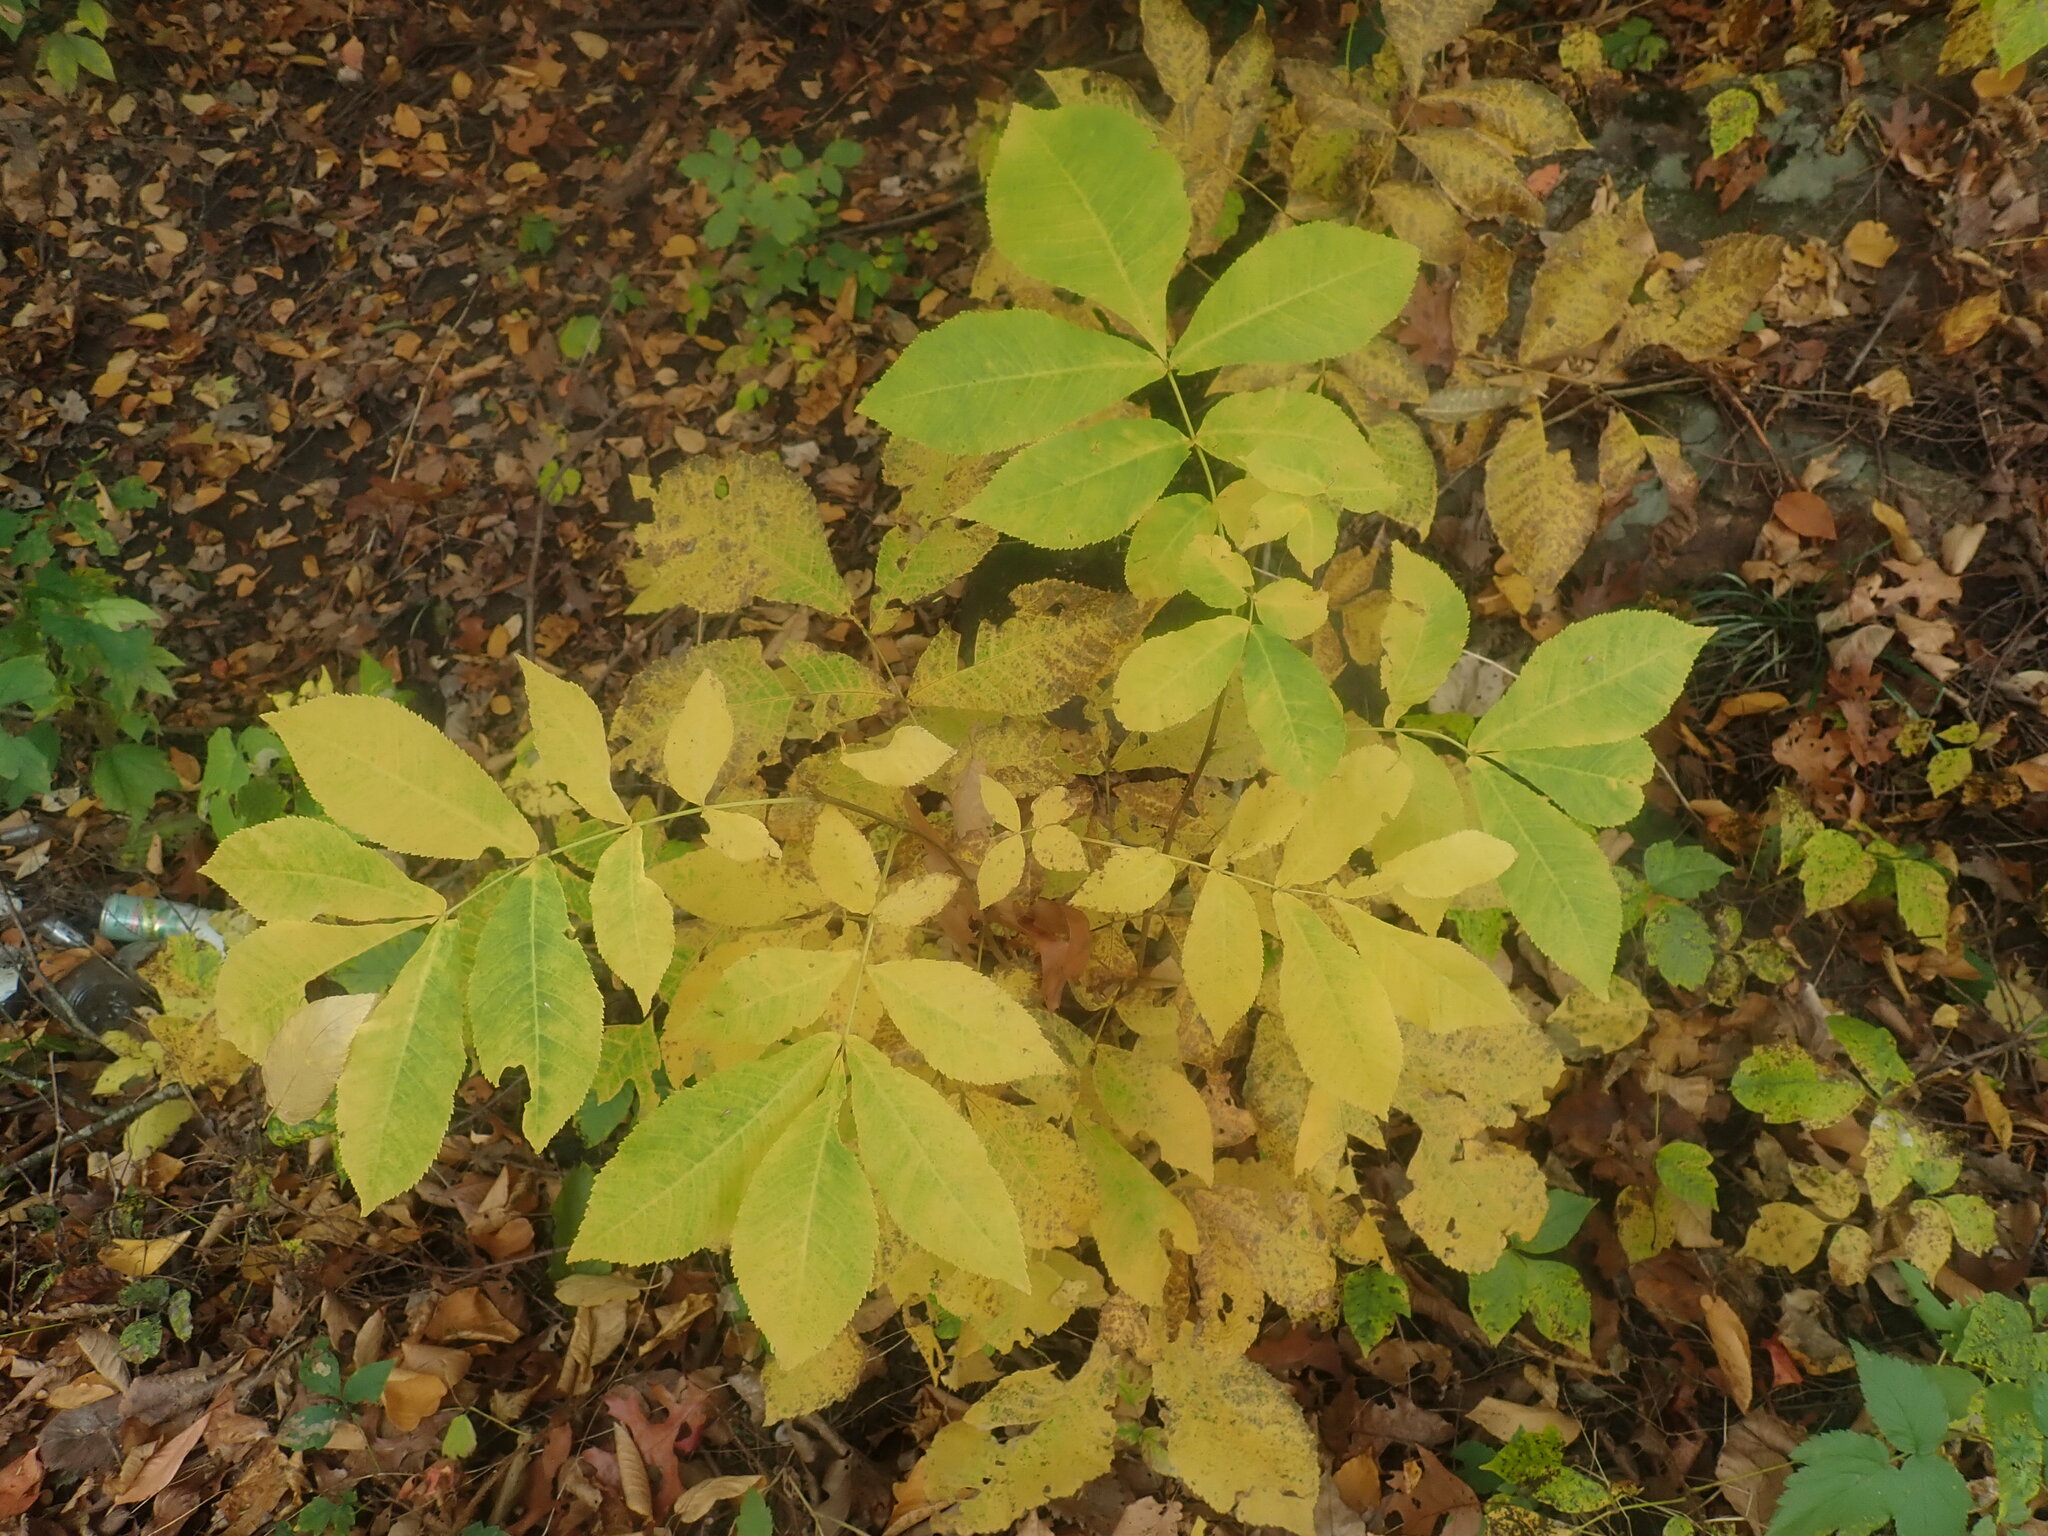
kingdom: Plantae
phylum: Tracheophyta
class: Magnoliopsida
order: Fagales
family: Juglandaceae
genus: Carya
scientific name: Carya cordiformis
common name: Bitternut hickory
